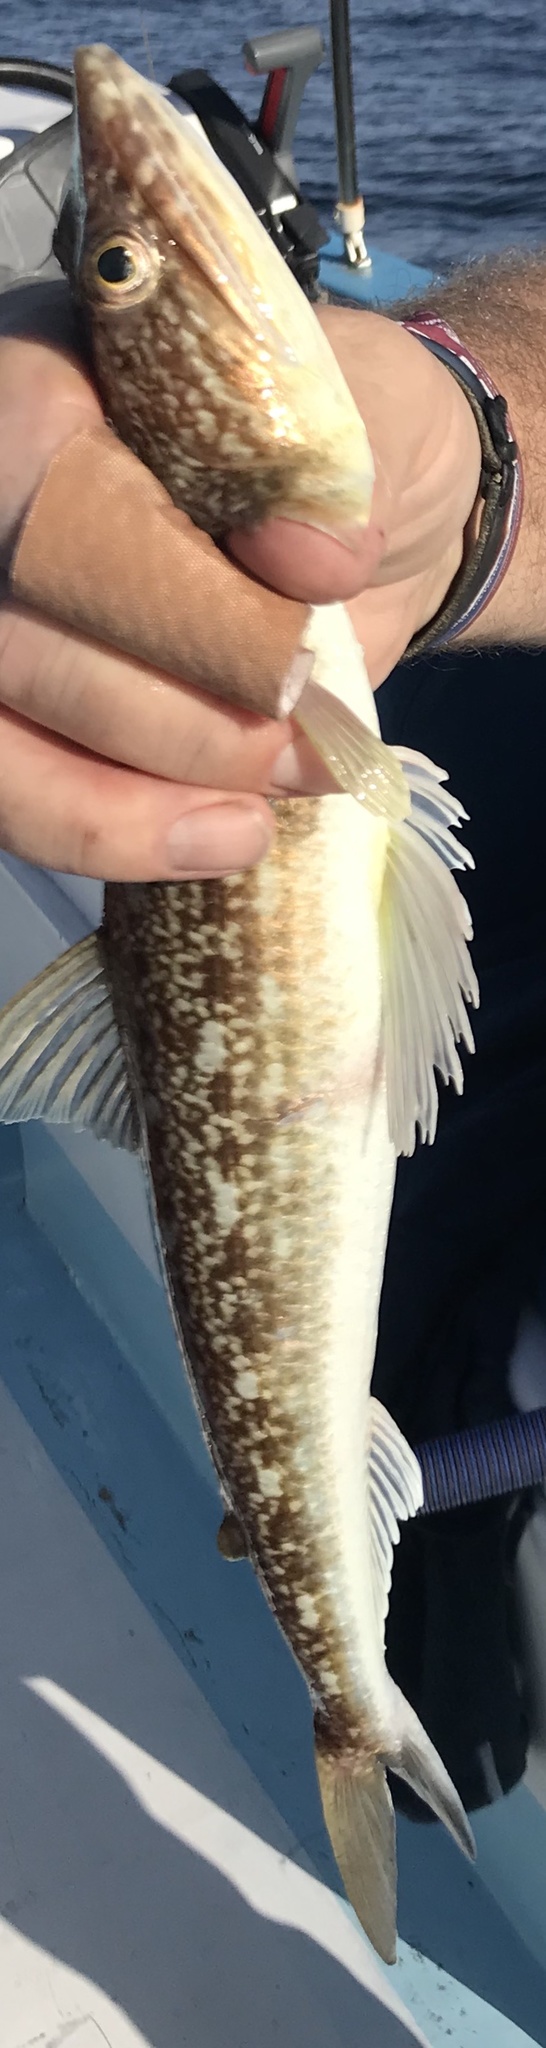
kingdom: Animalia
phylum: Chordata
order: Aulopiformes
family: Synodontidae
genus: Synodus
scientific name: Synodus evermanni
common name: Lizardfish
